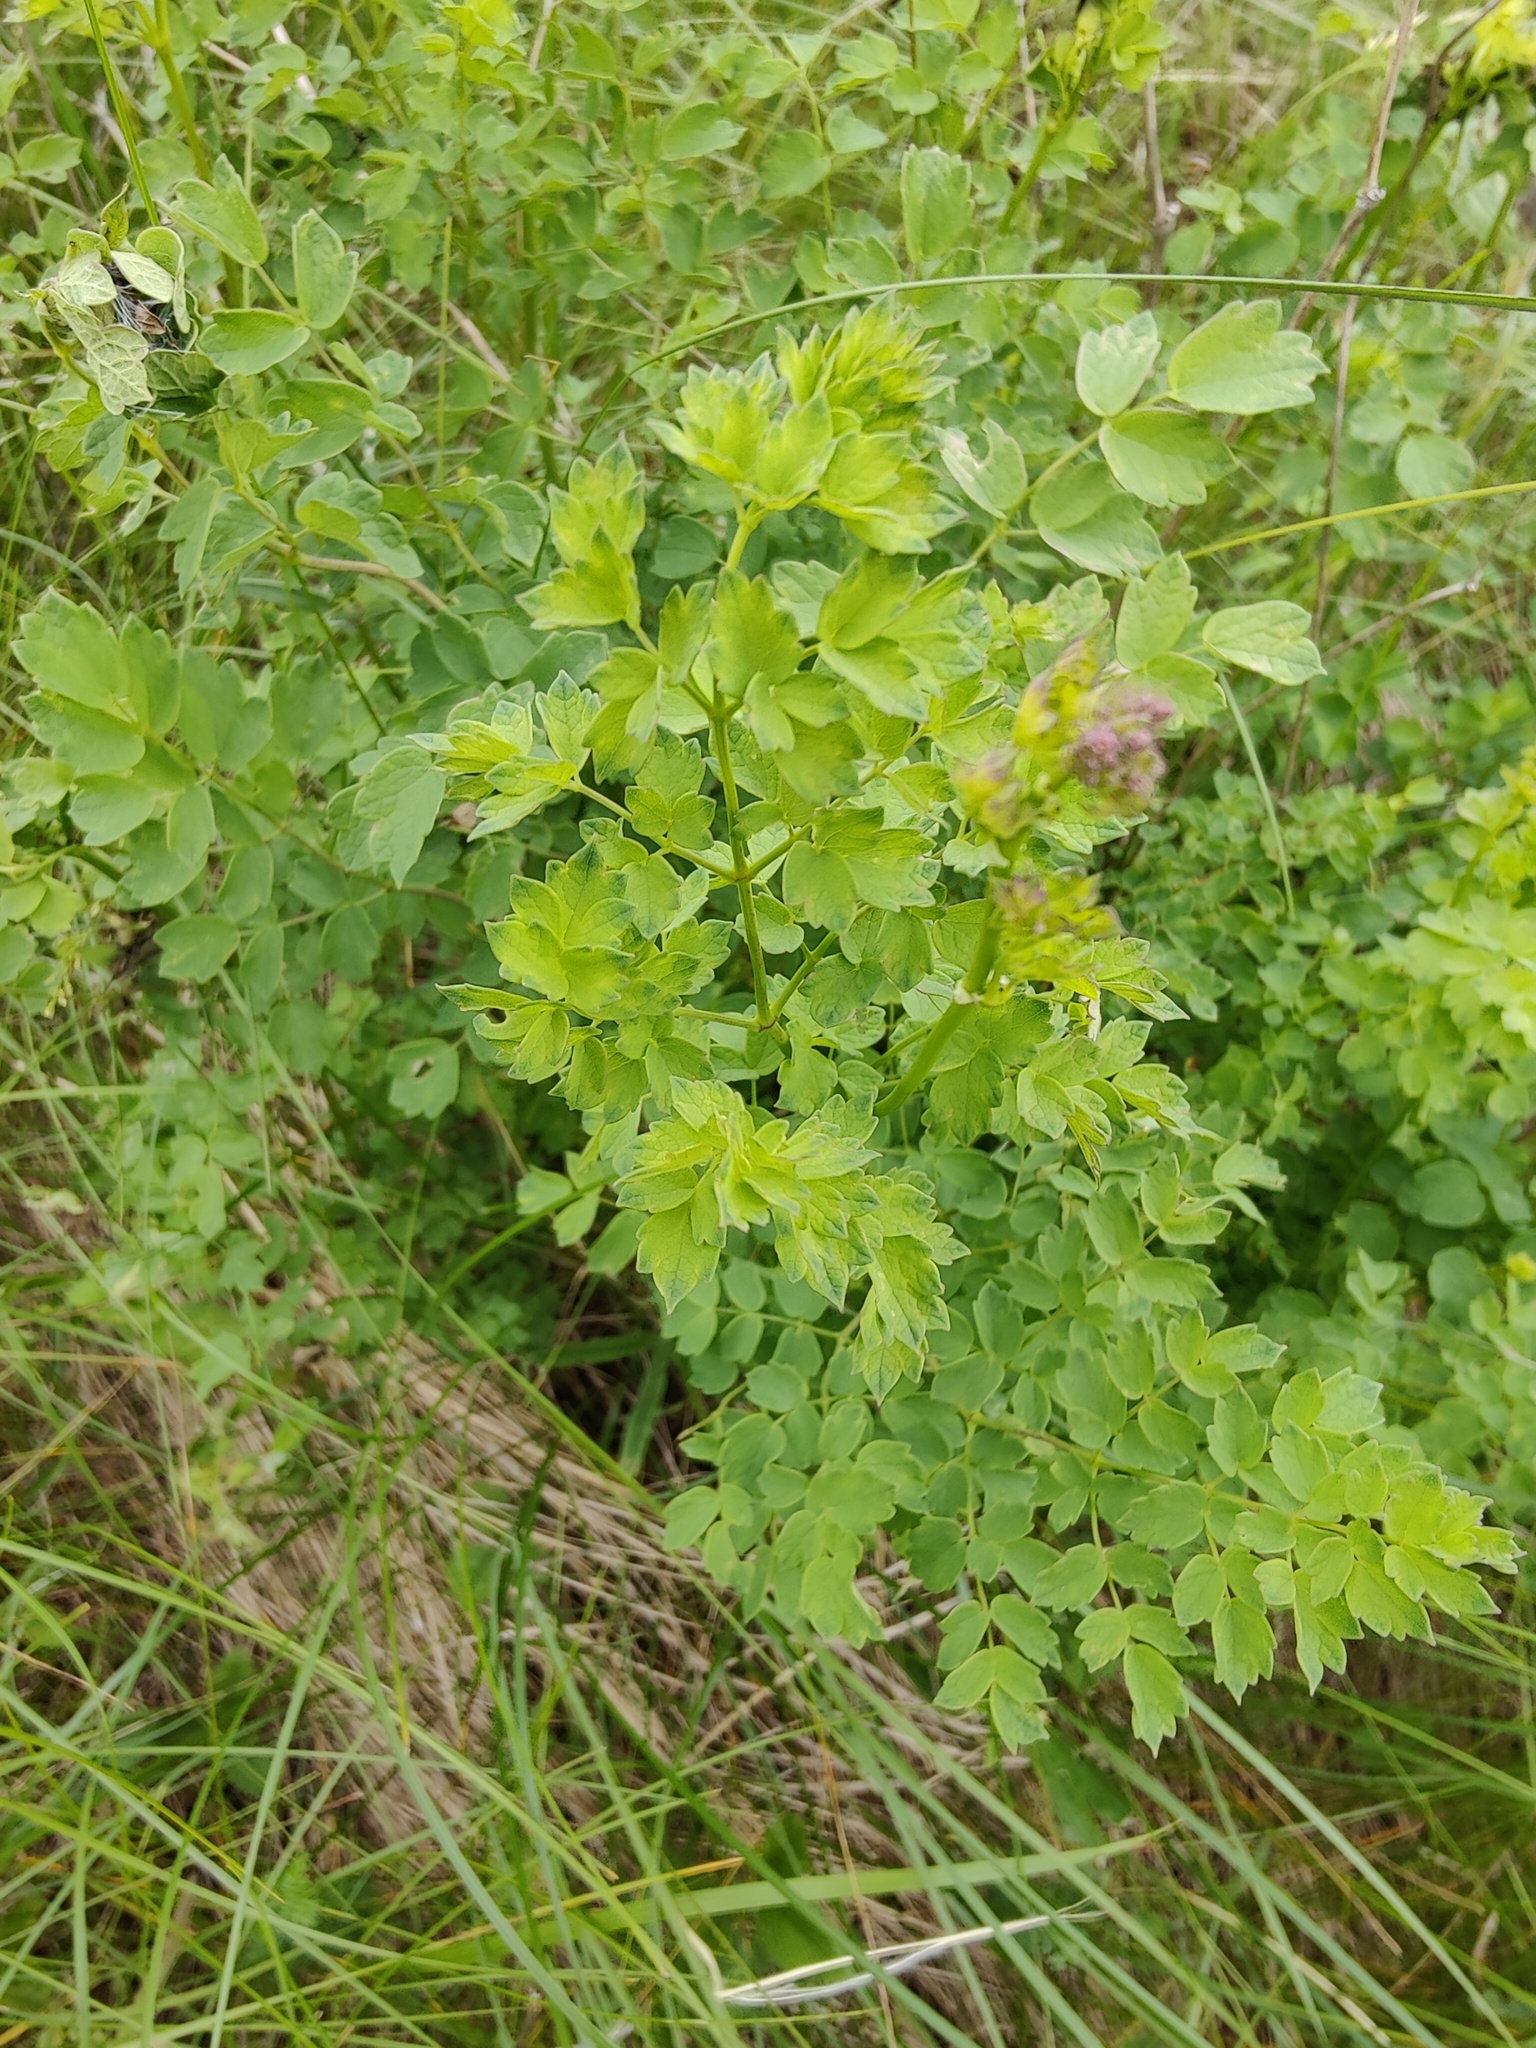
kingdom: Plantae
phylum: Tracheophyta
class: Magnoliopsida
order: Ranunculales
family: Ranunculaceae
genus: Thalictrum
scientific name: Thalictrum minus
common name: Lesser meadow-rue
